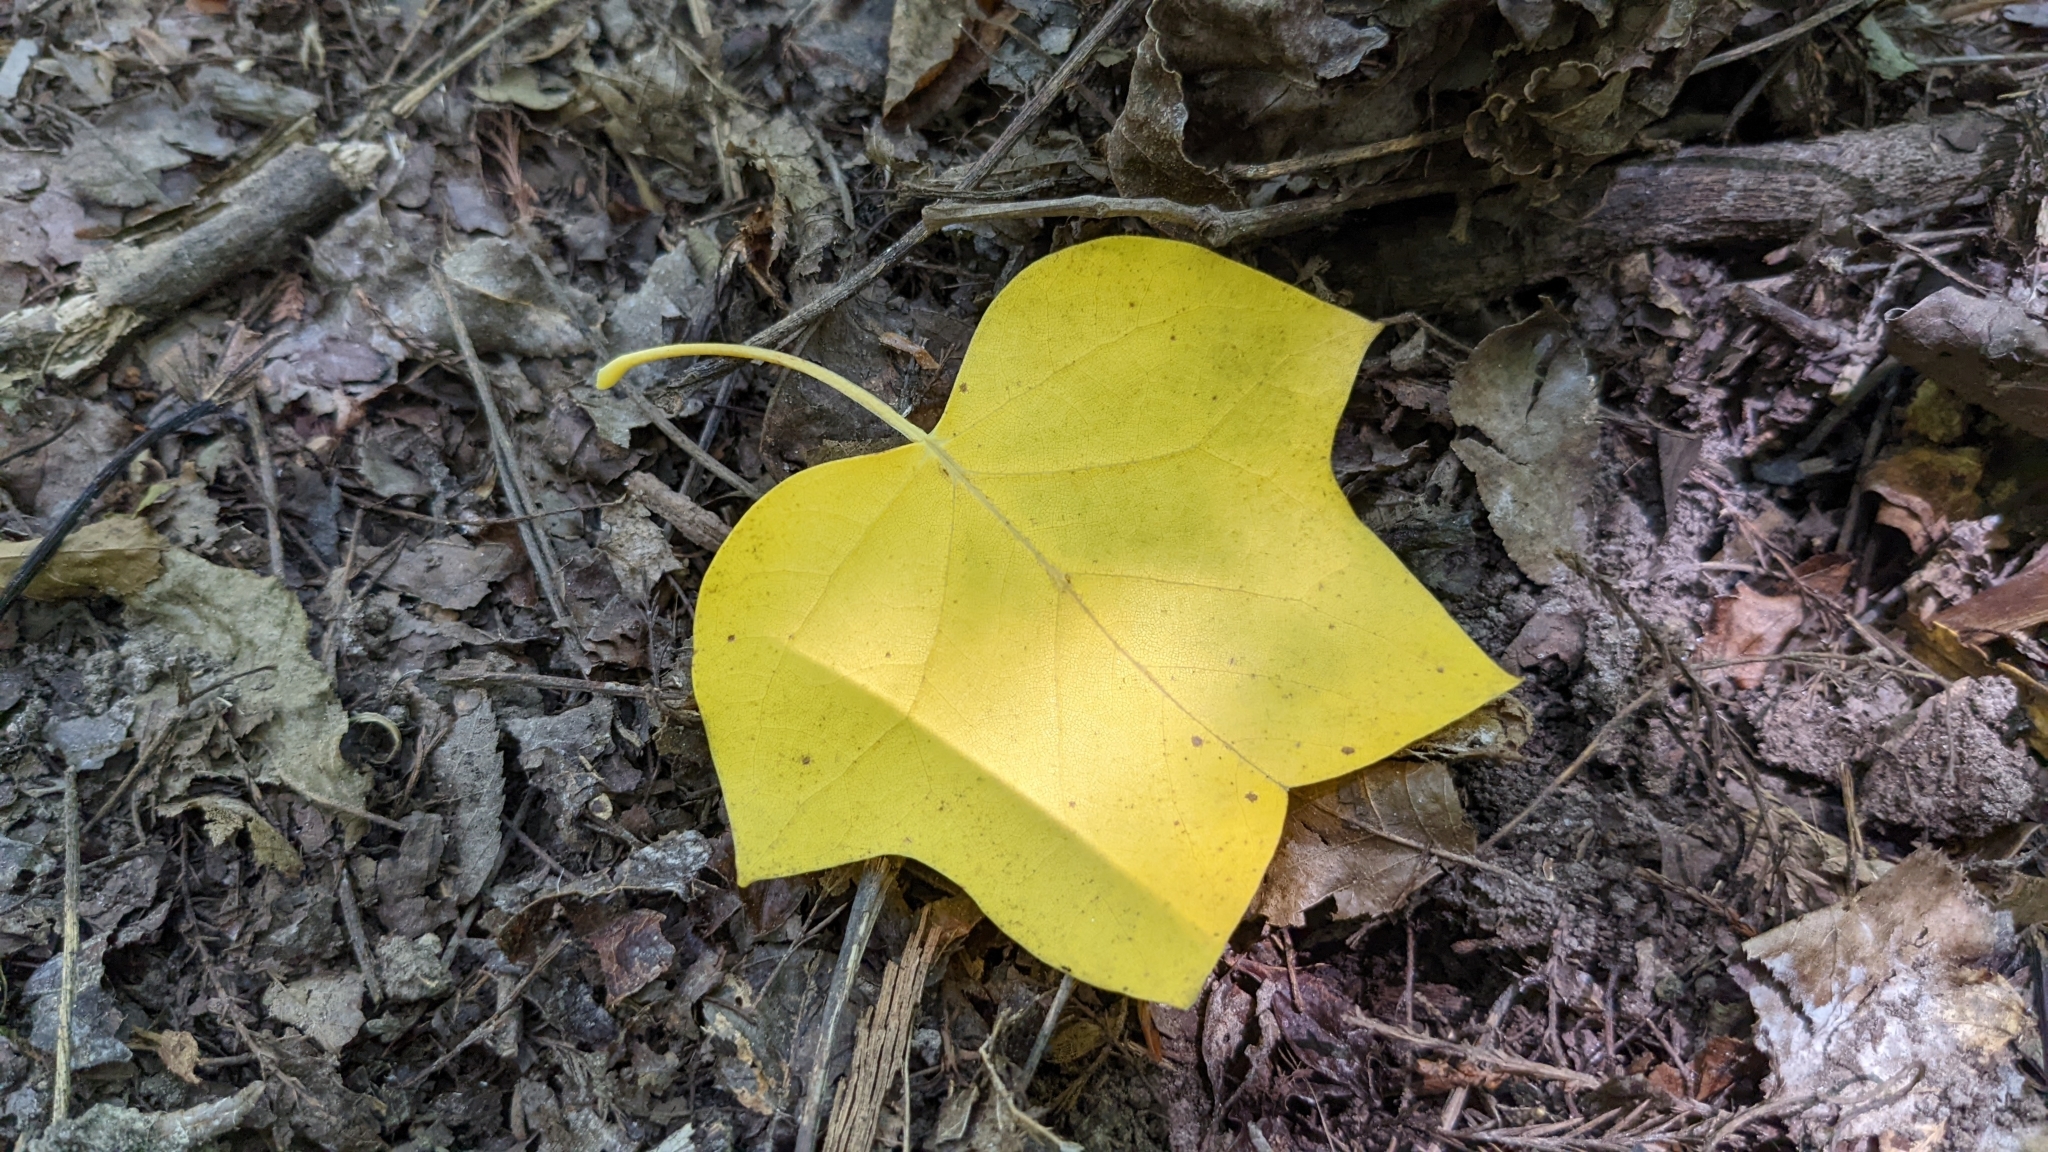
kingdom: Plantae
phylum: Tracheophyta
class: Magnoliopsida
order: Magnoliales
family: Magnoliaceae
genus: Liriodendron
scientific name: Liriodendron tulipifera
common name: Tulip tree
